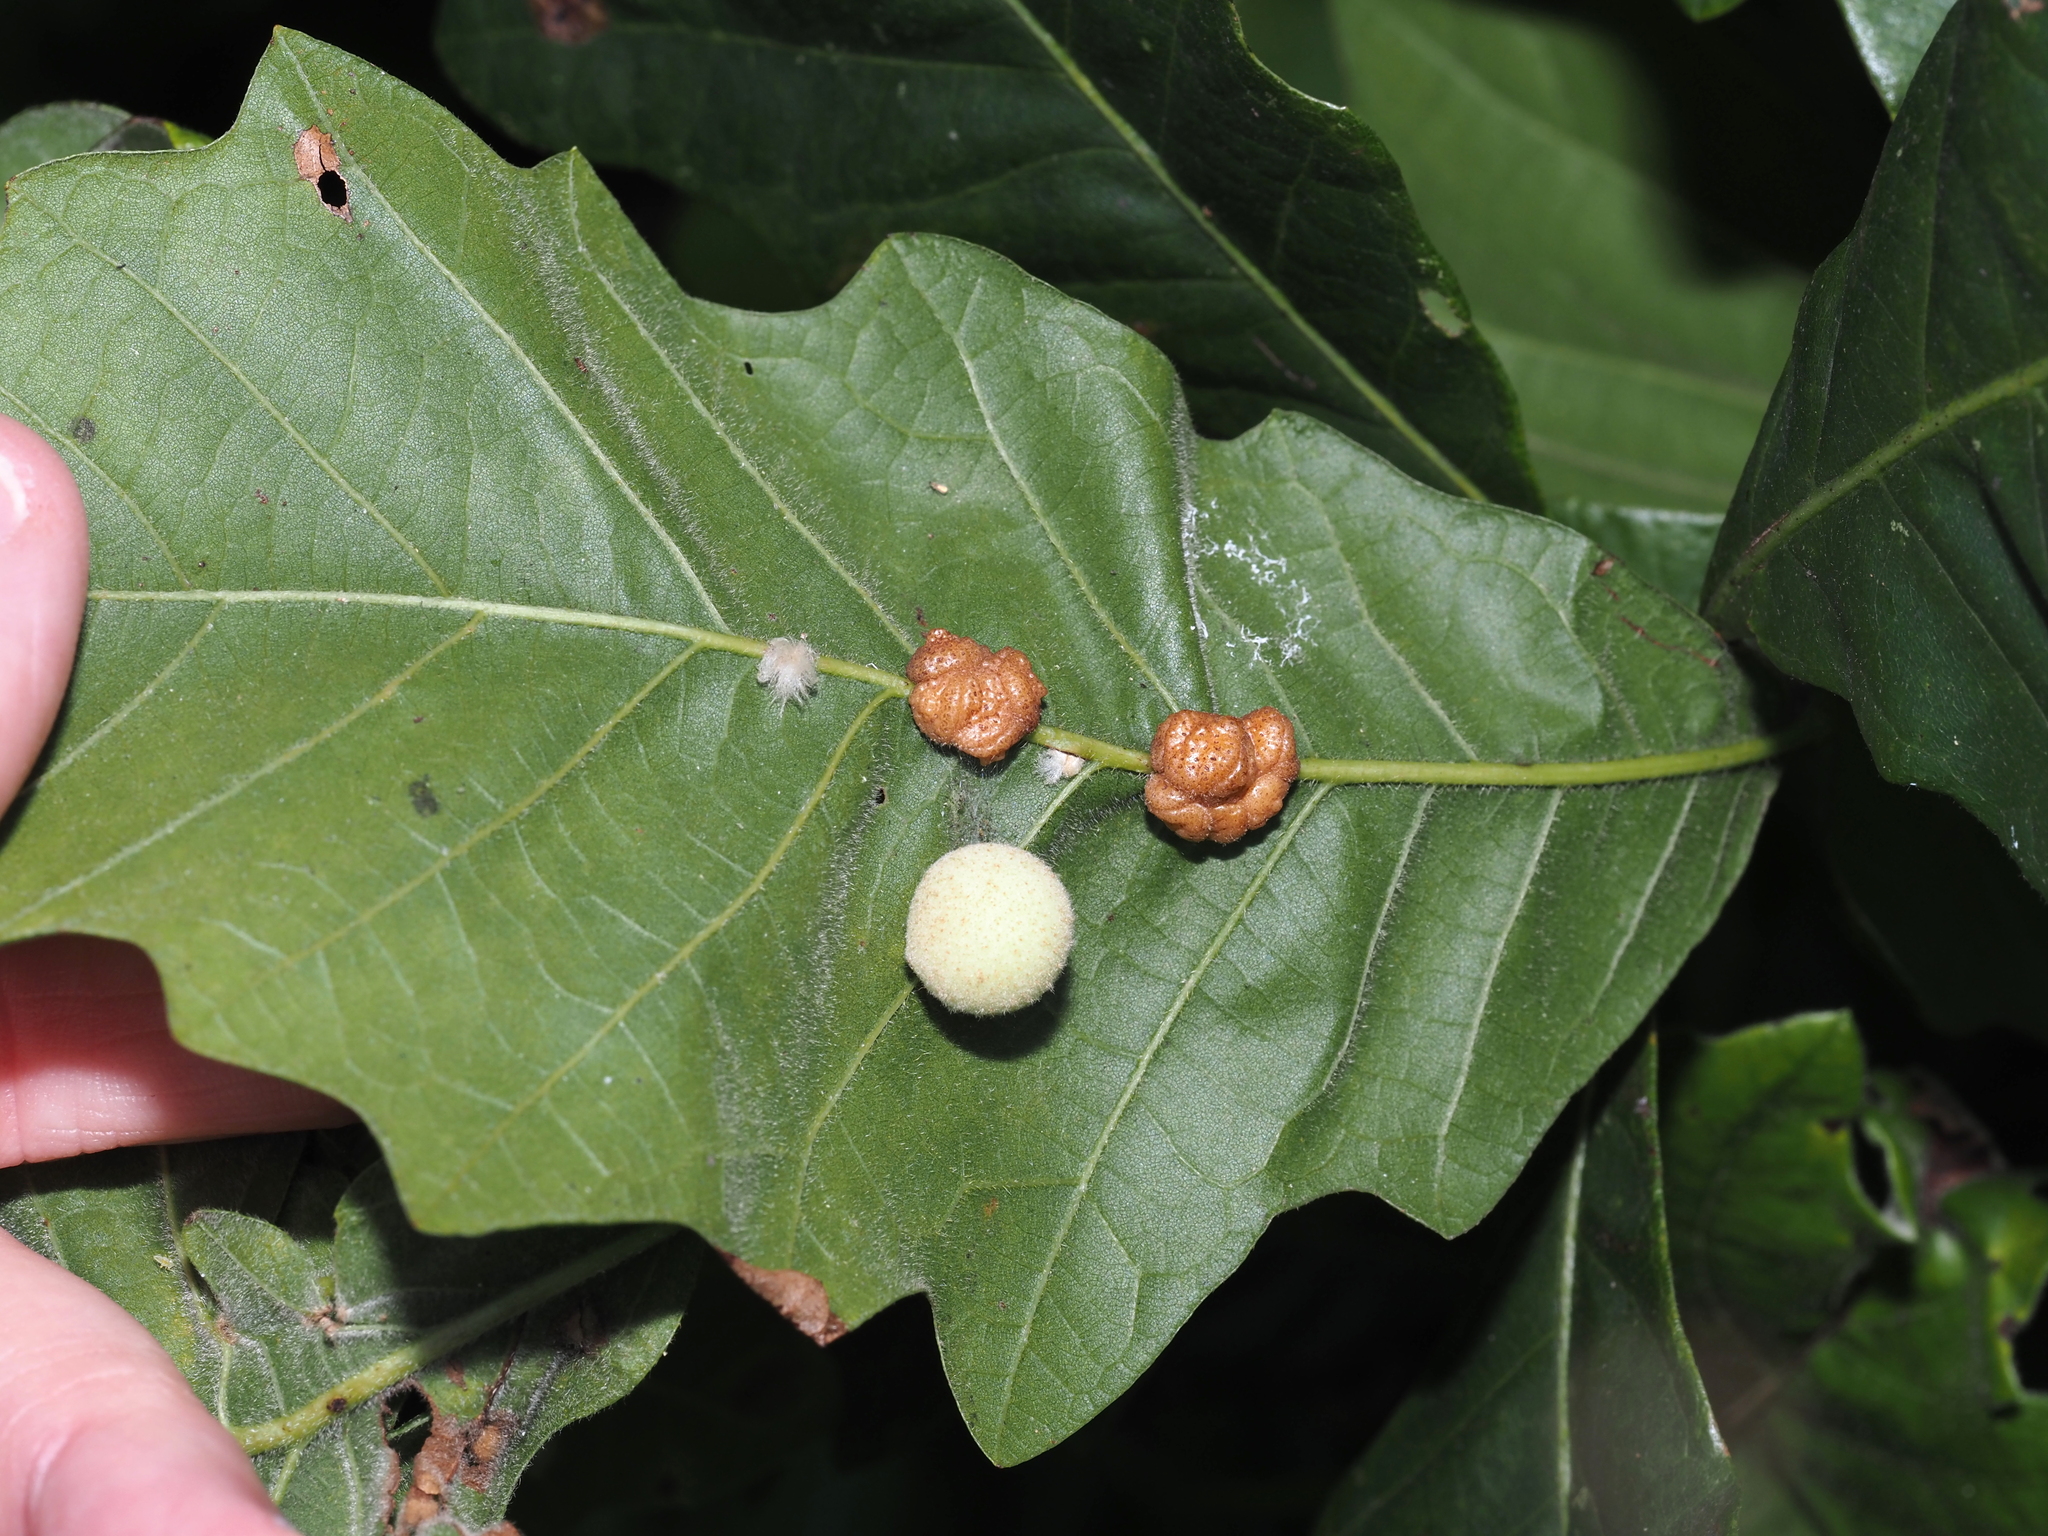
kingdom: Animalia
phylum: Arthropoda
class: Insecta
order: Hymenoptera
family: Cynipidae
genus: Philonix
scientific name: Philonix fulvicollis
